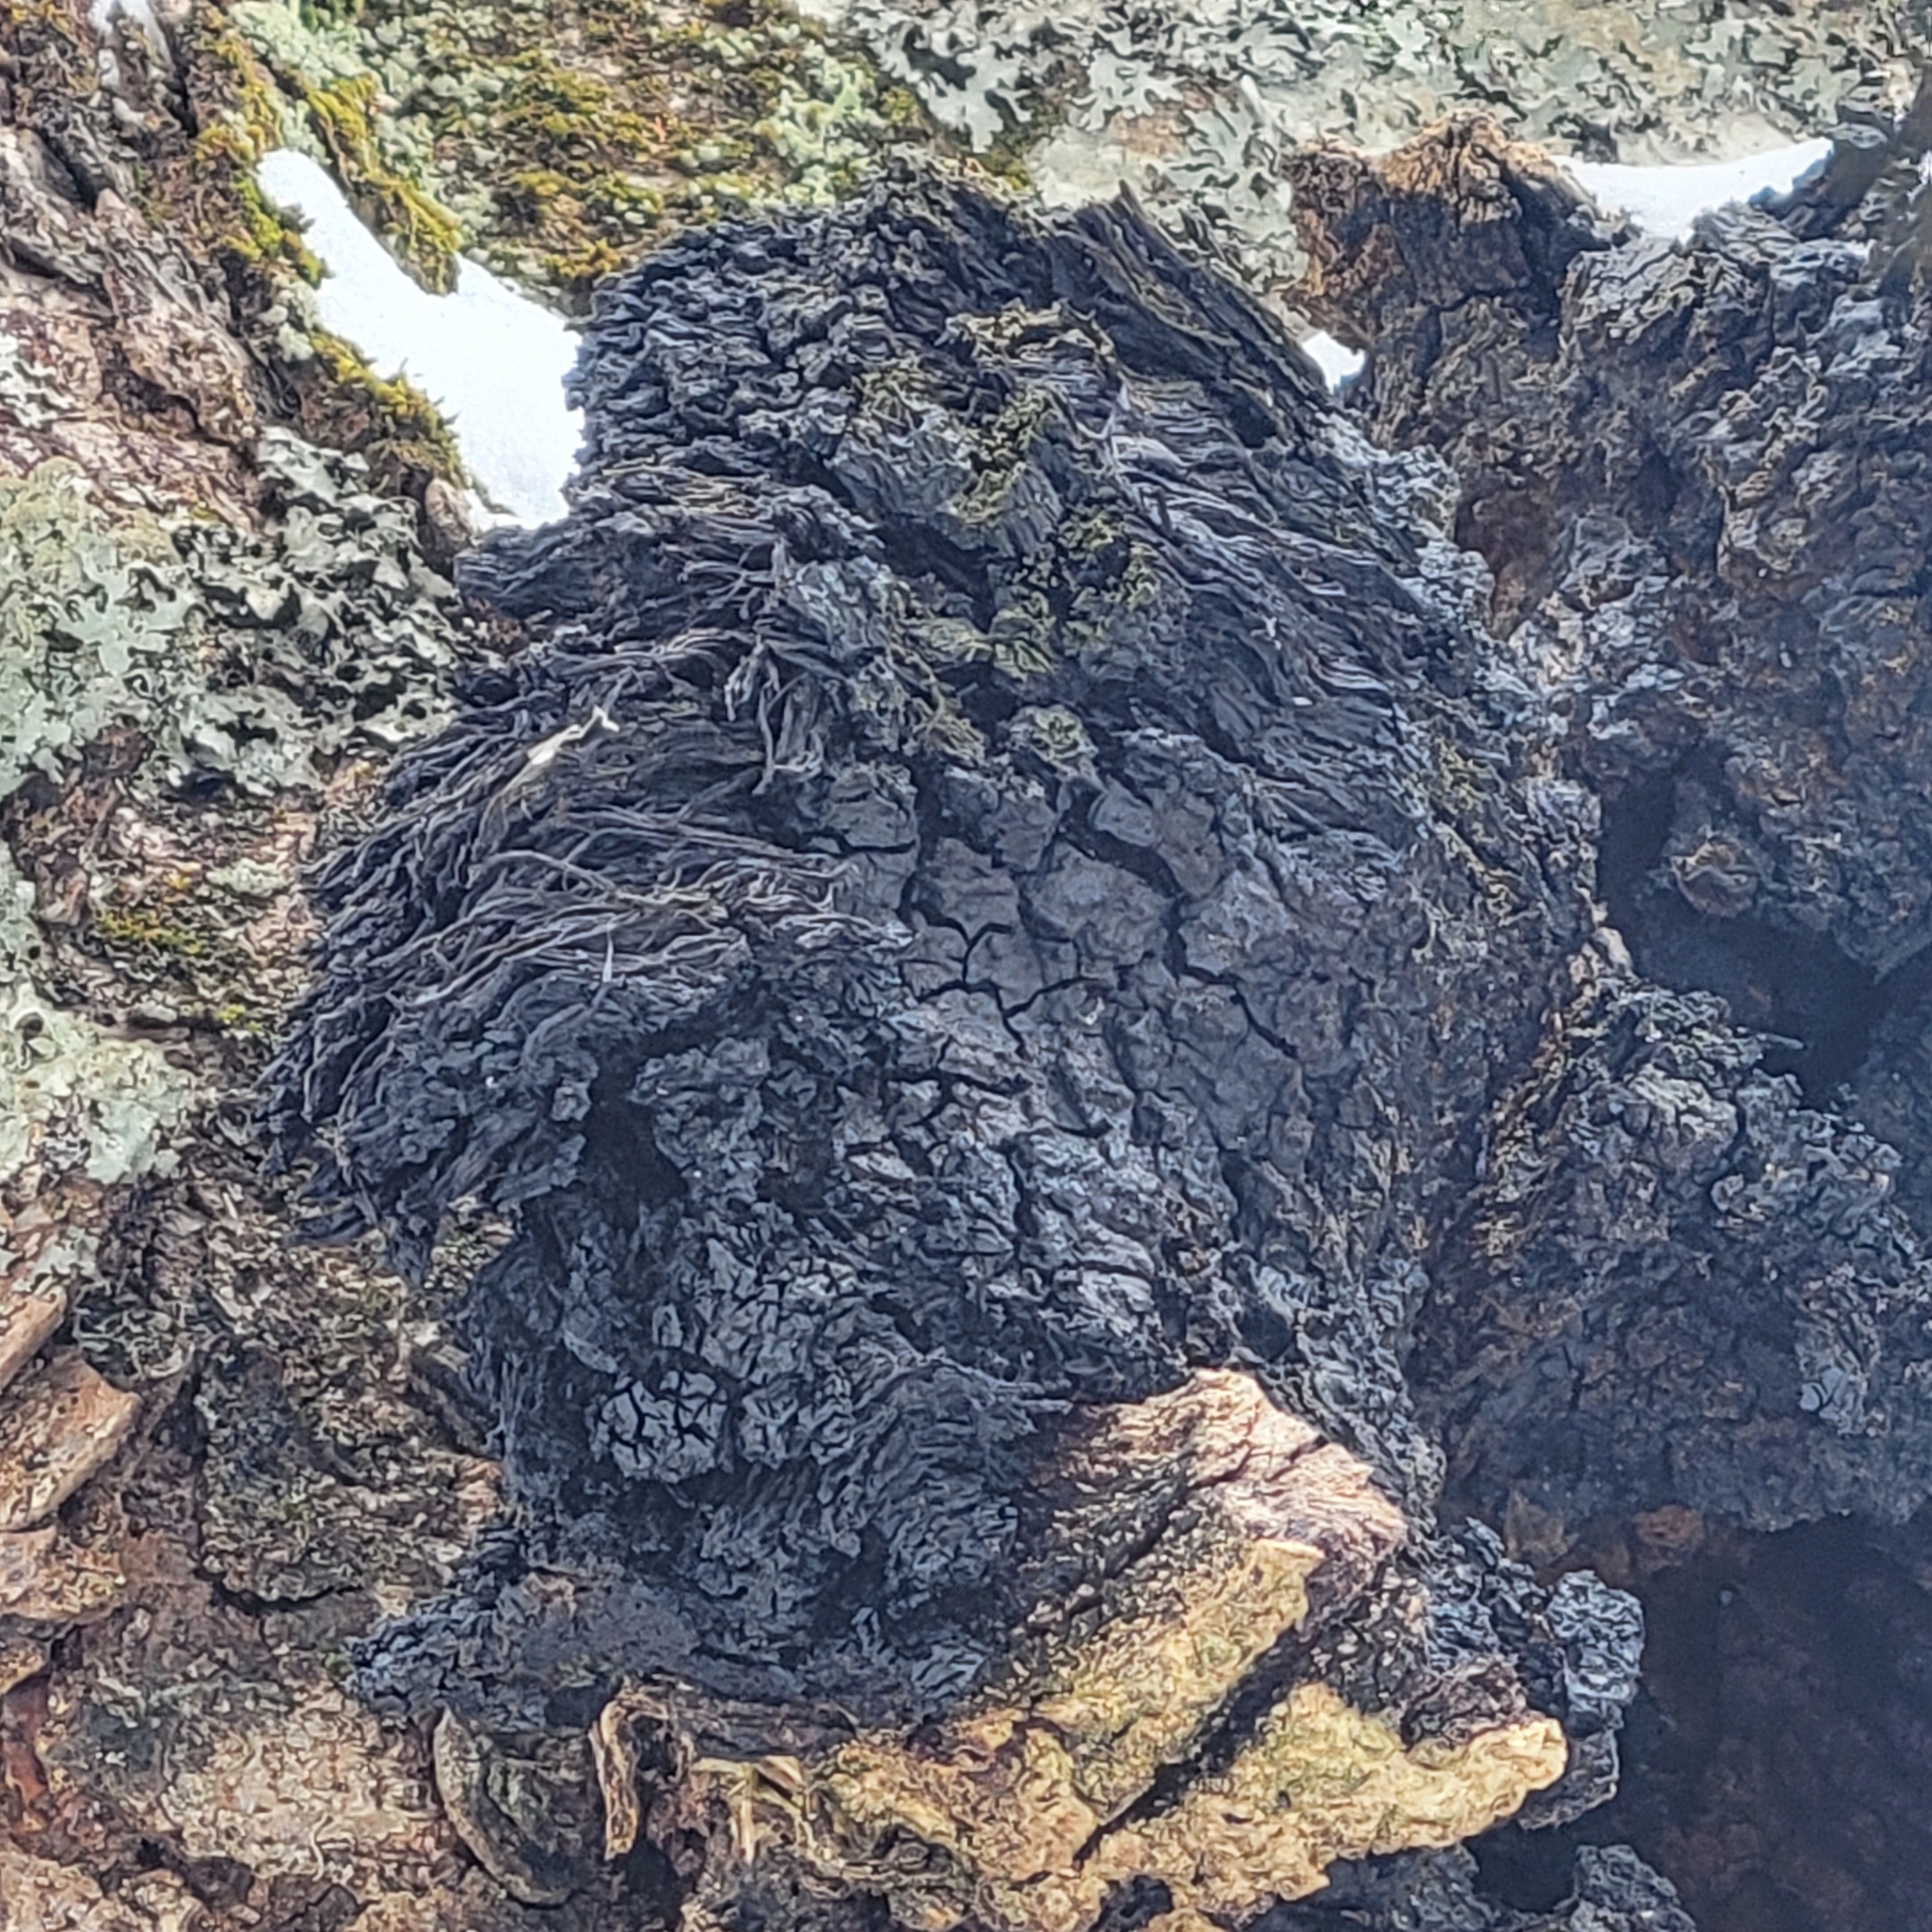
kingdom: Fungi
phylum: Basidiomycota
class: Agaricomycetes
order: Hymenochaetales
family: Hymenochaetaceae
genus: Inonotus
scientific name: Inonotus obliquus
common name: Chaga
